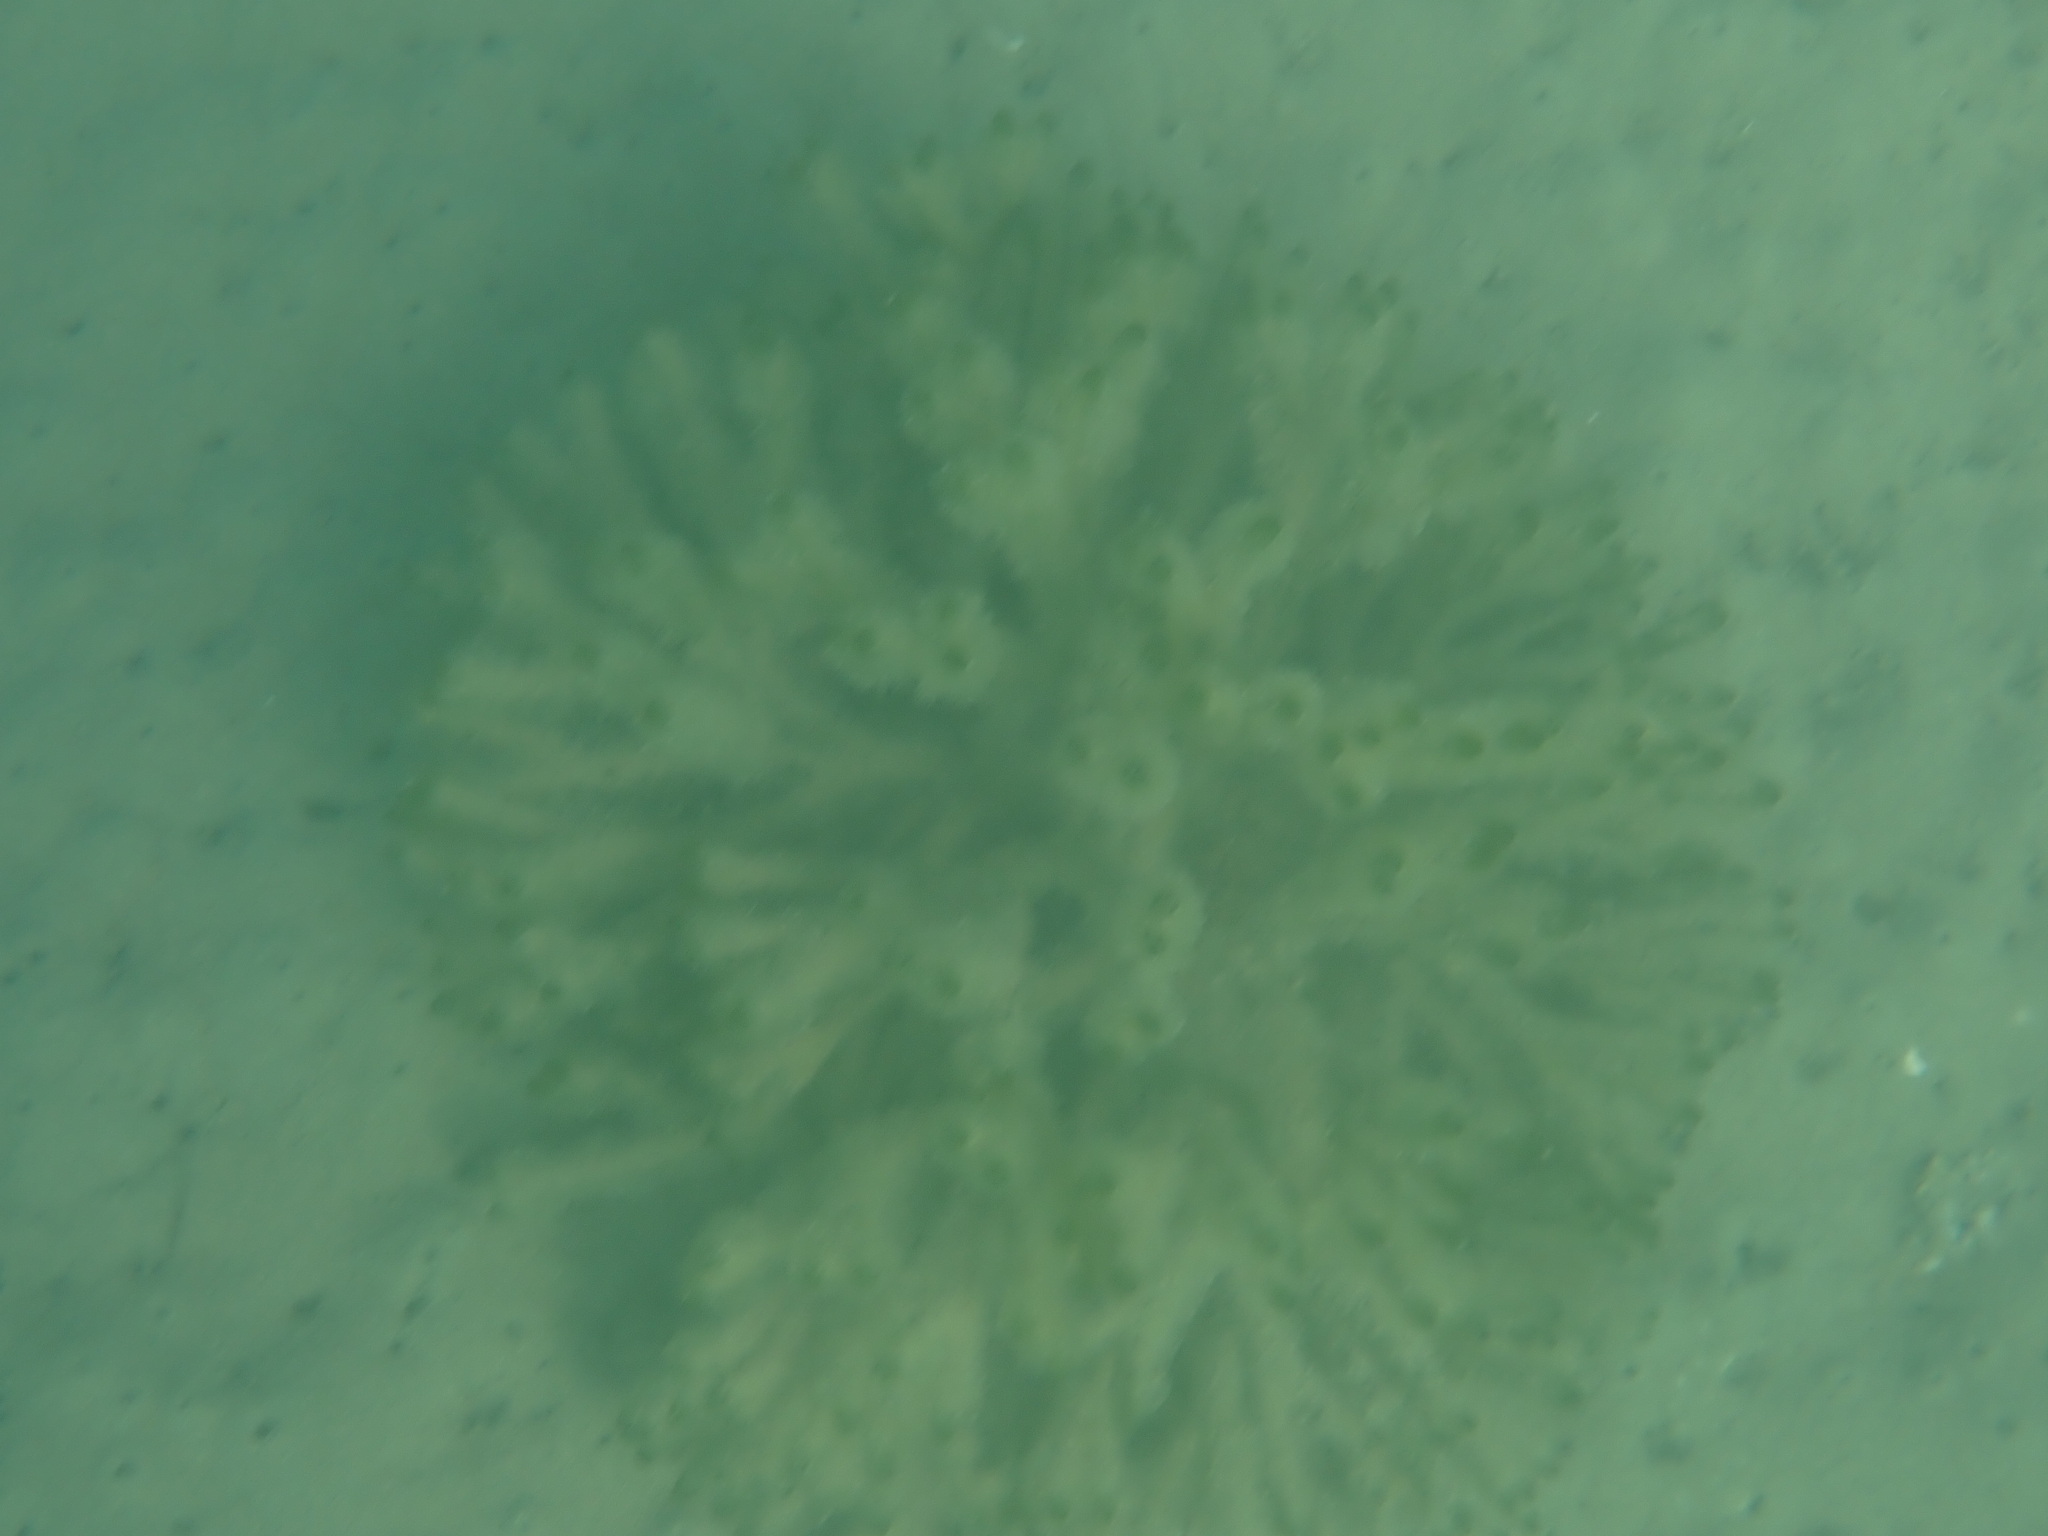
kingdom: Plantae
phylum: Chlorophyta
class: Ulvophyceae
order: Bryopsidales
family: Codiaceae
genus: Codium
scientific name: Codium fragile
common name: Dead man's fingers
